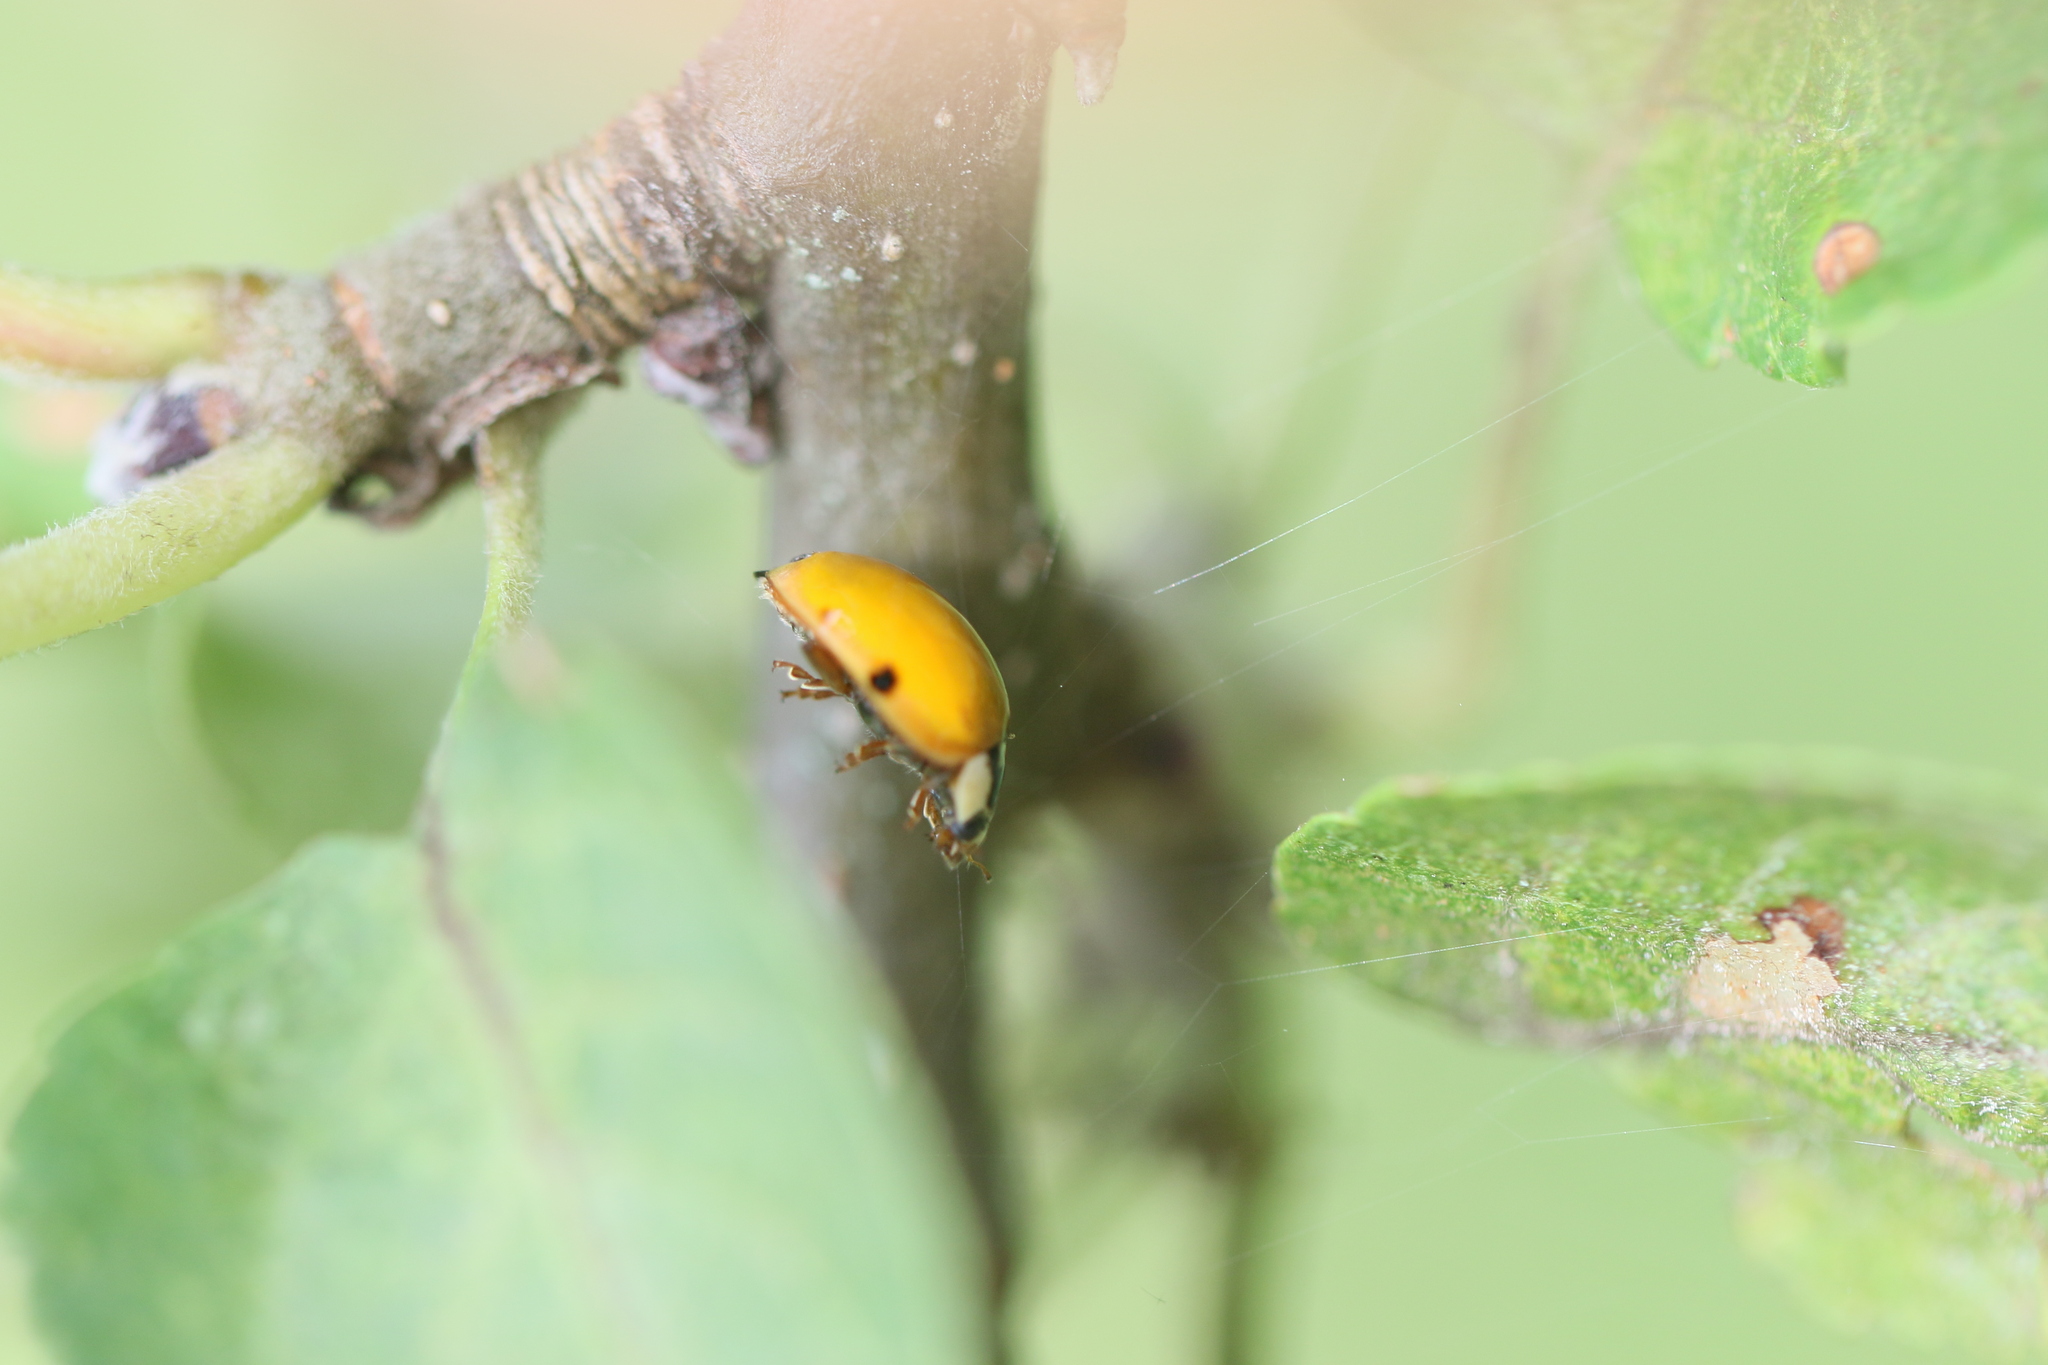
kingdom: Animalia
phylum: Arthropoda
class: Insecta
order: Coleoptera
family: Coccinellidae
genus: Harmonia
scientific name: Harmonia axyridis
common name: Harlequin ladybird
